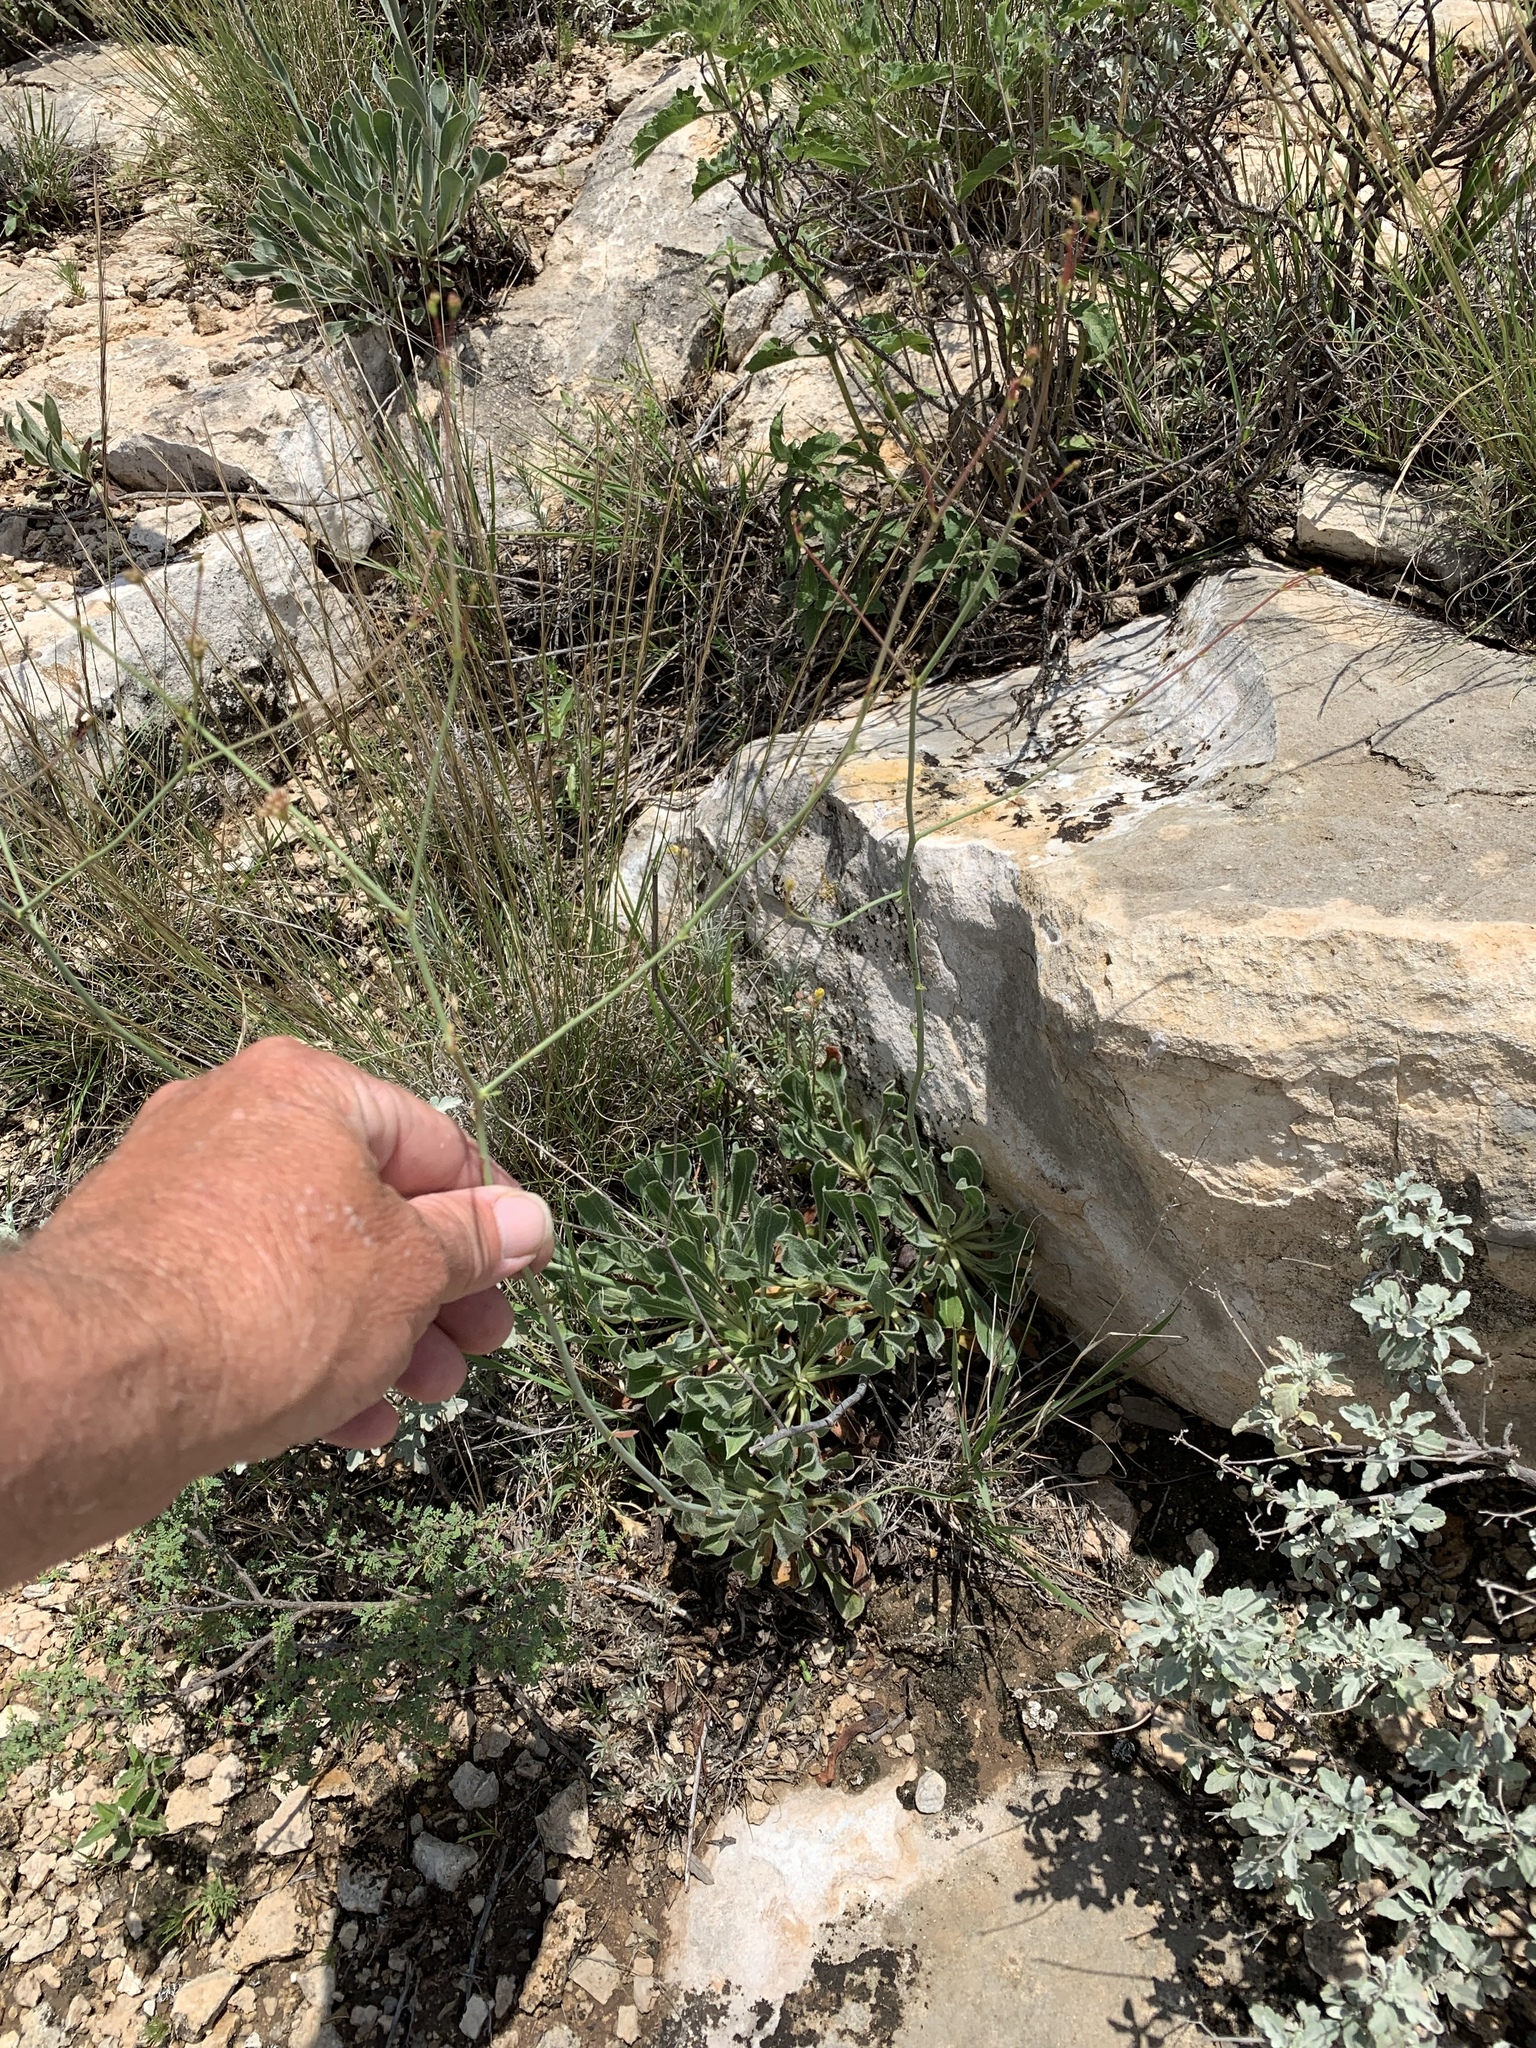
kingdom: Plantae
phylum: Tracheophyta
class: Magnoliopsida
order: Caryophyllales
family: Polygonaceae
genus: Eriogonum
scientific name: Eriogonum nealleyi
